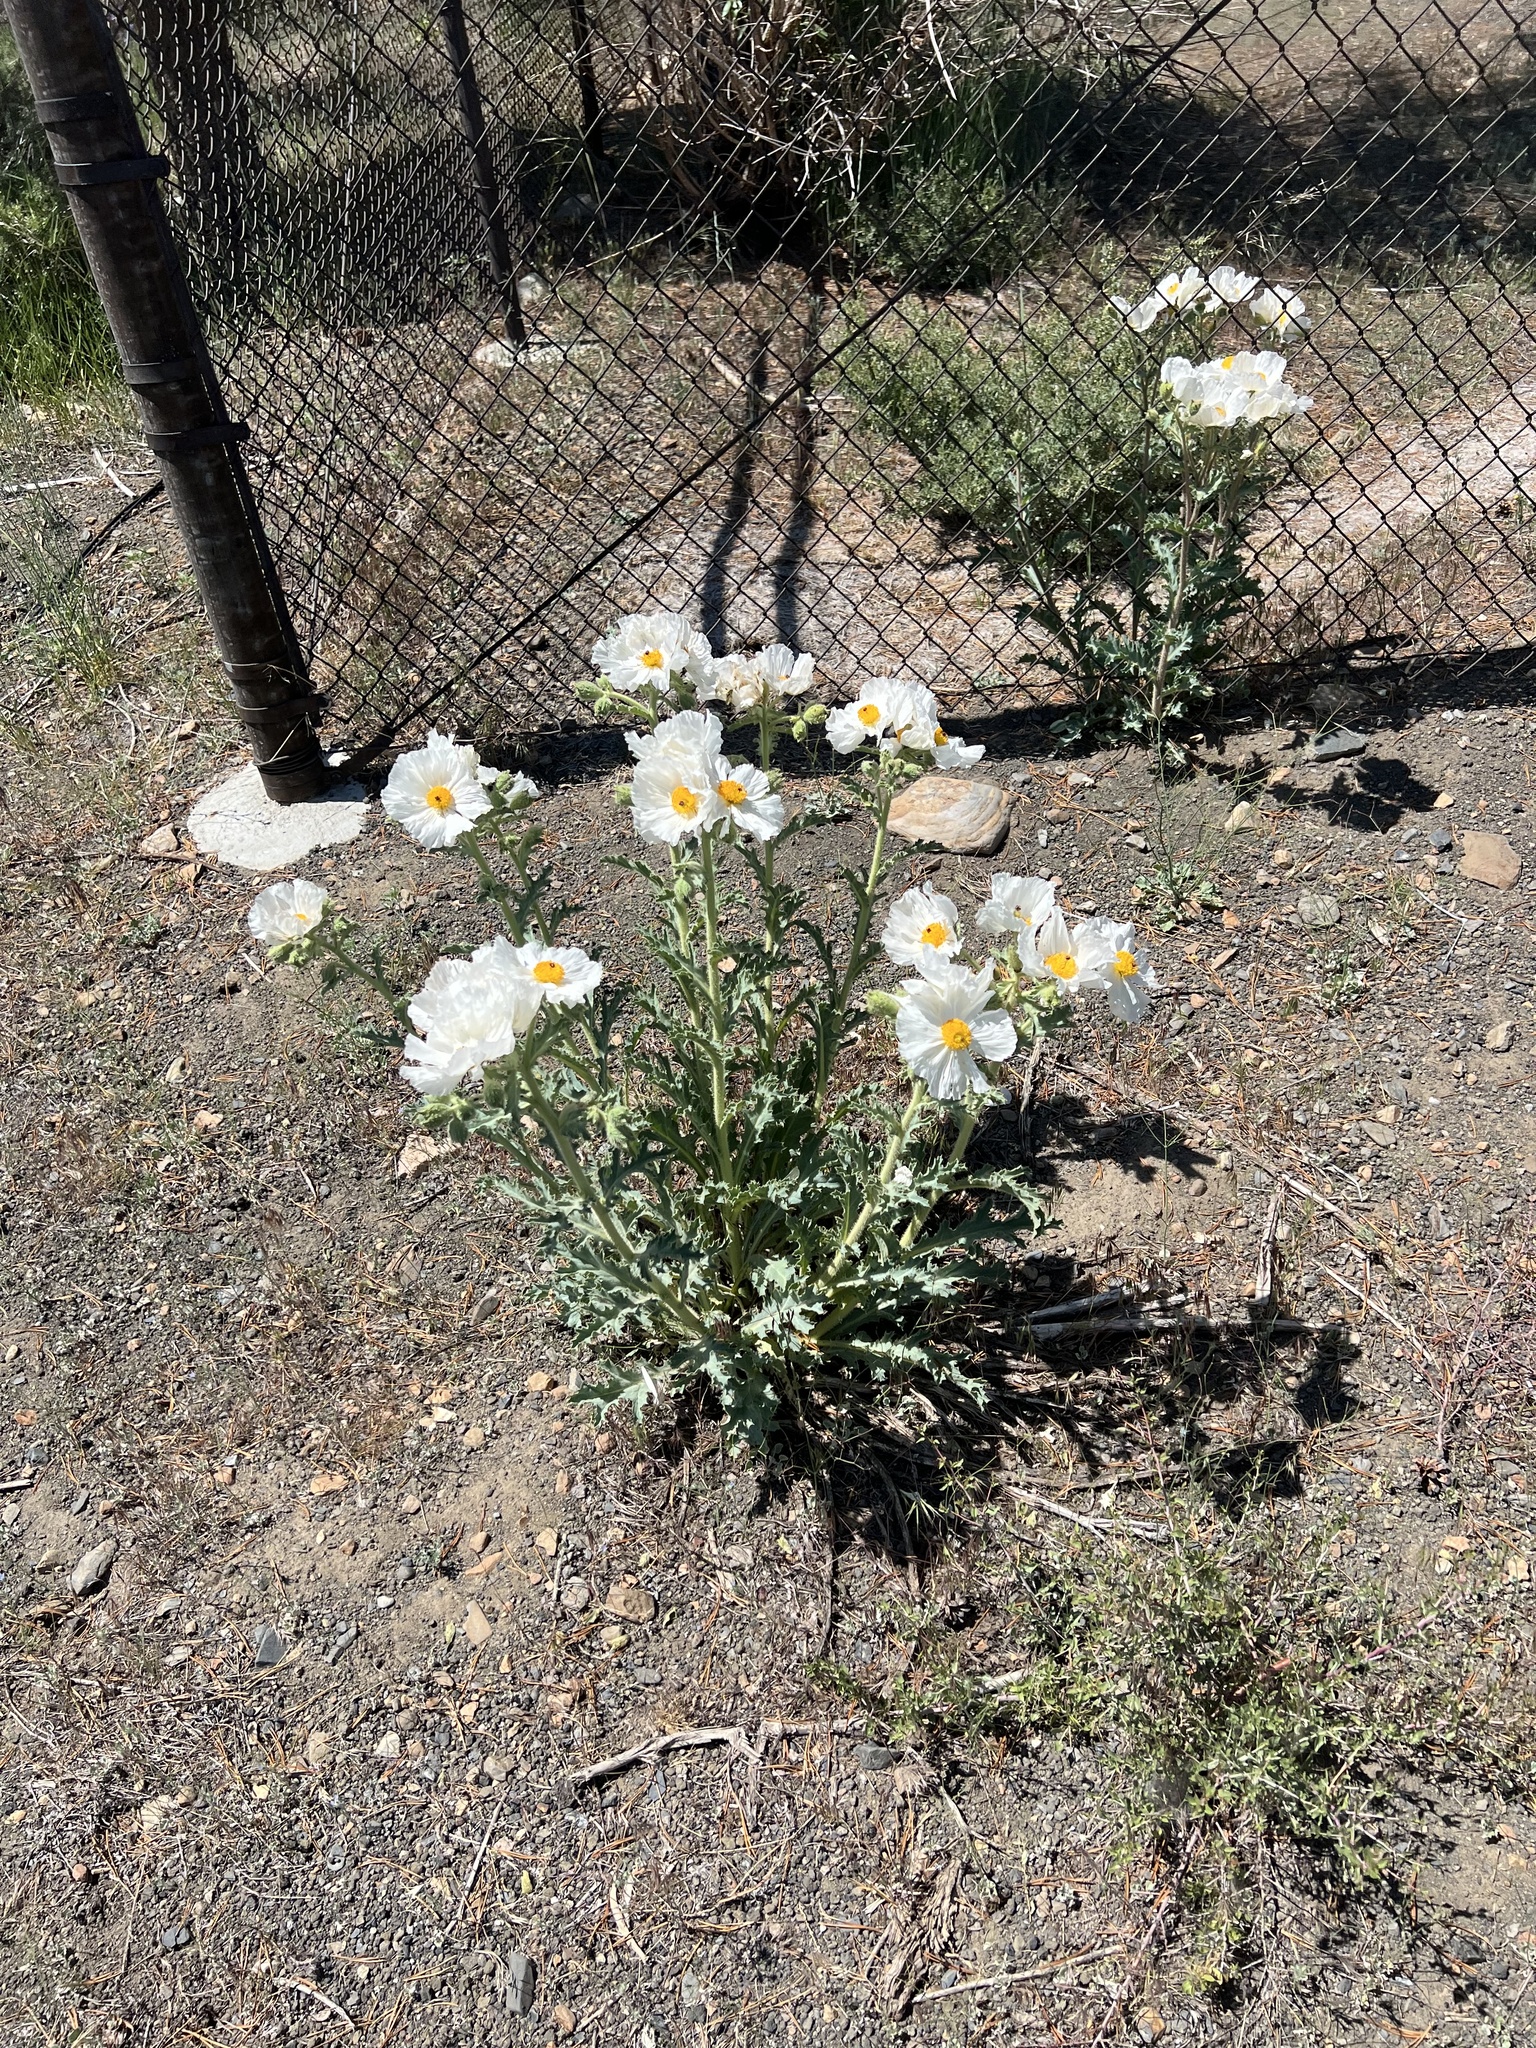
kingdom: Plantae
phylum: Tracheophyta
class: Magnoliopsida
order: Ranunculales
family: Papaveraceae
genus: Argemone
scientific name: Argemone munita
